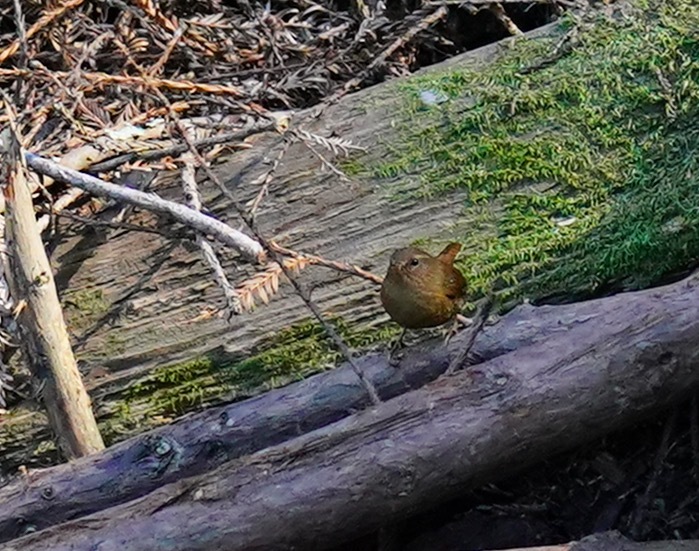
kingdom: Animalia
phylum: Chordata
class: Aves
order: Passeriformes
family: Troglodytidae
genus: Troglodytes
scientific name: Troglodytes pacificus
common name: Pacific wren
